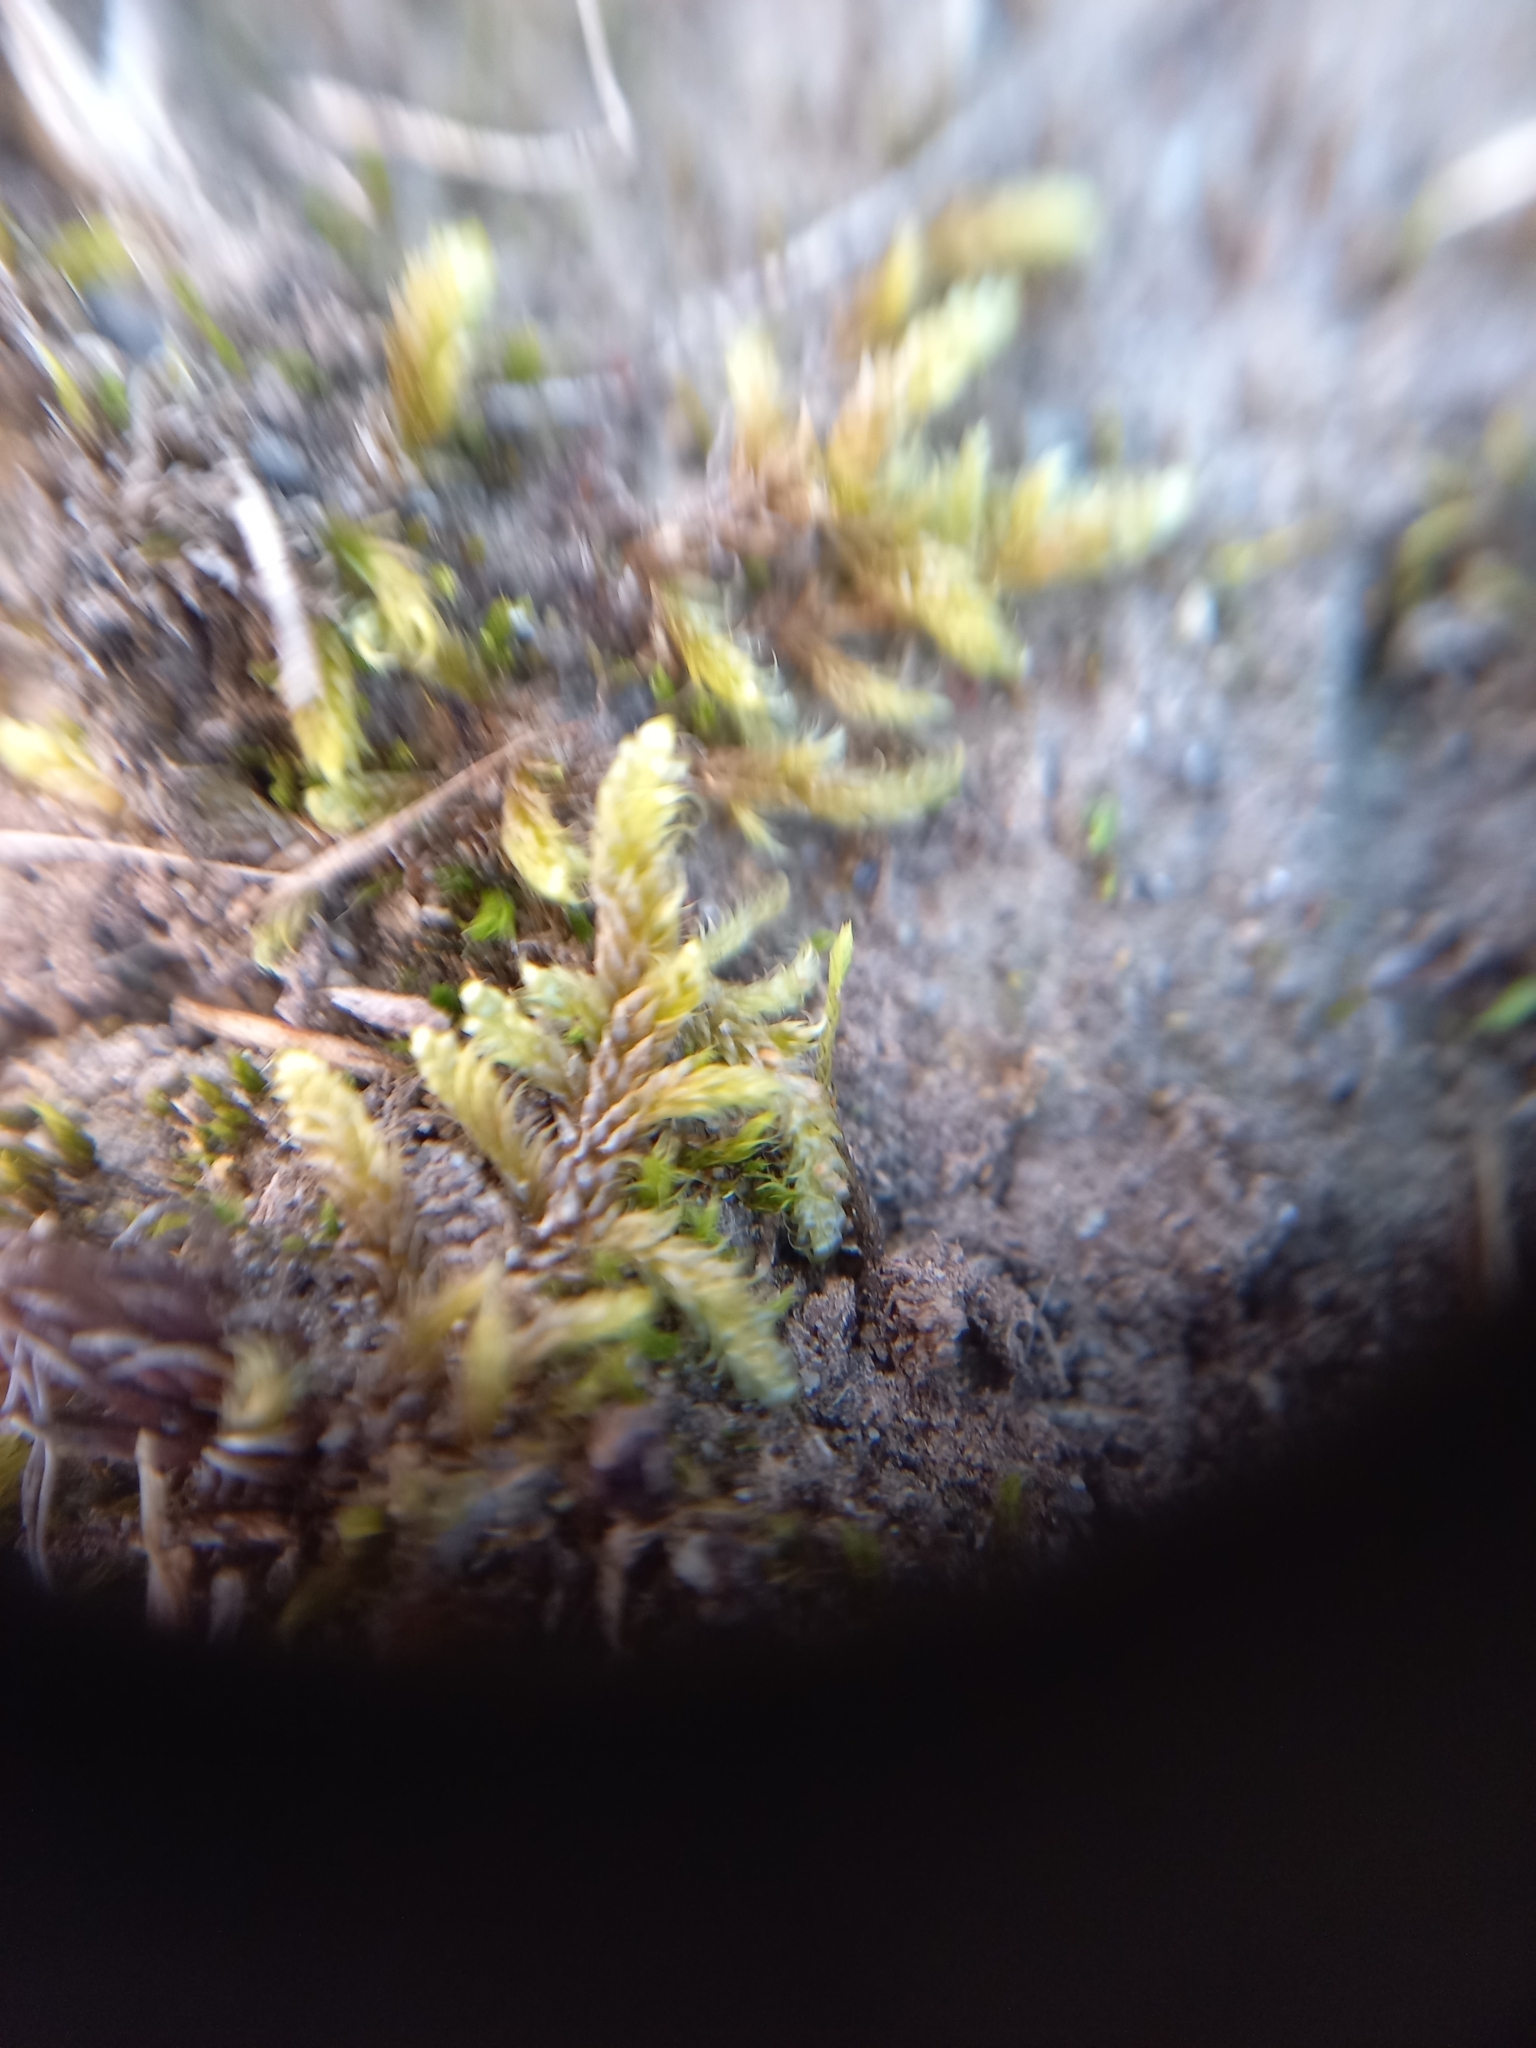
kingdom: Plantae
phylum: Bryophyta
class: Bryopsida
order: Hypnales
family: Hypnaceae
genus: Hypnum
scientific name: Hypnum cupressiforme
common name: Cypress-leaved plait-moss
